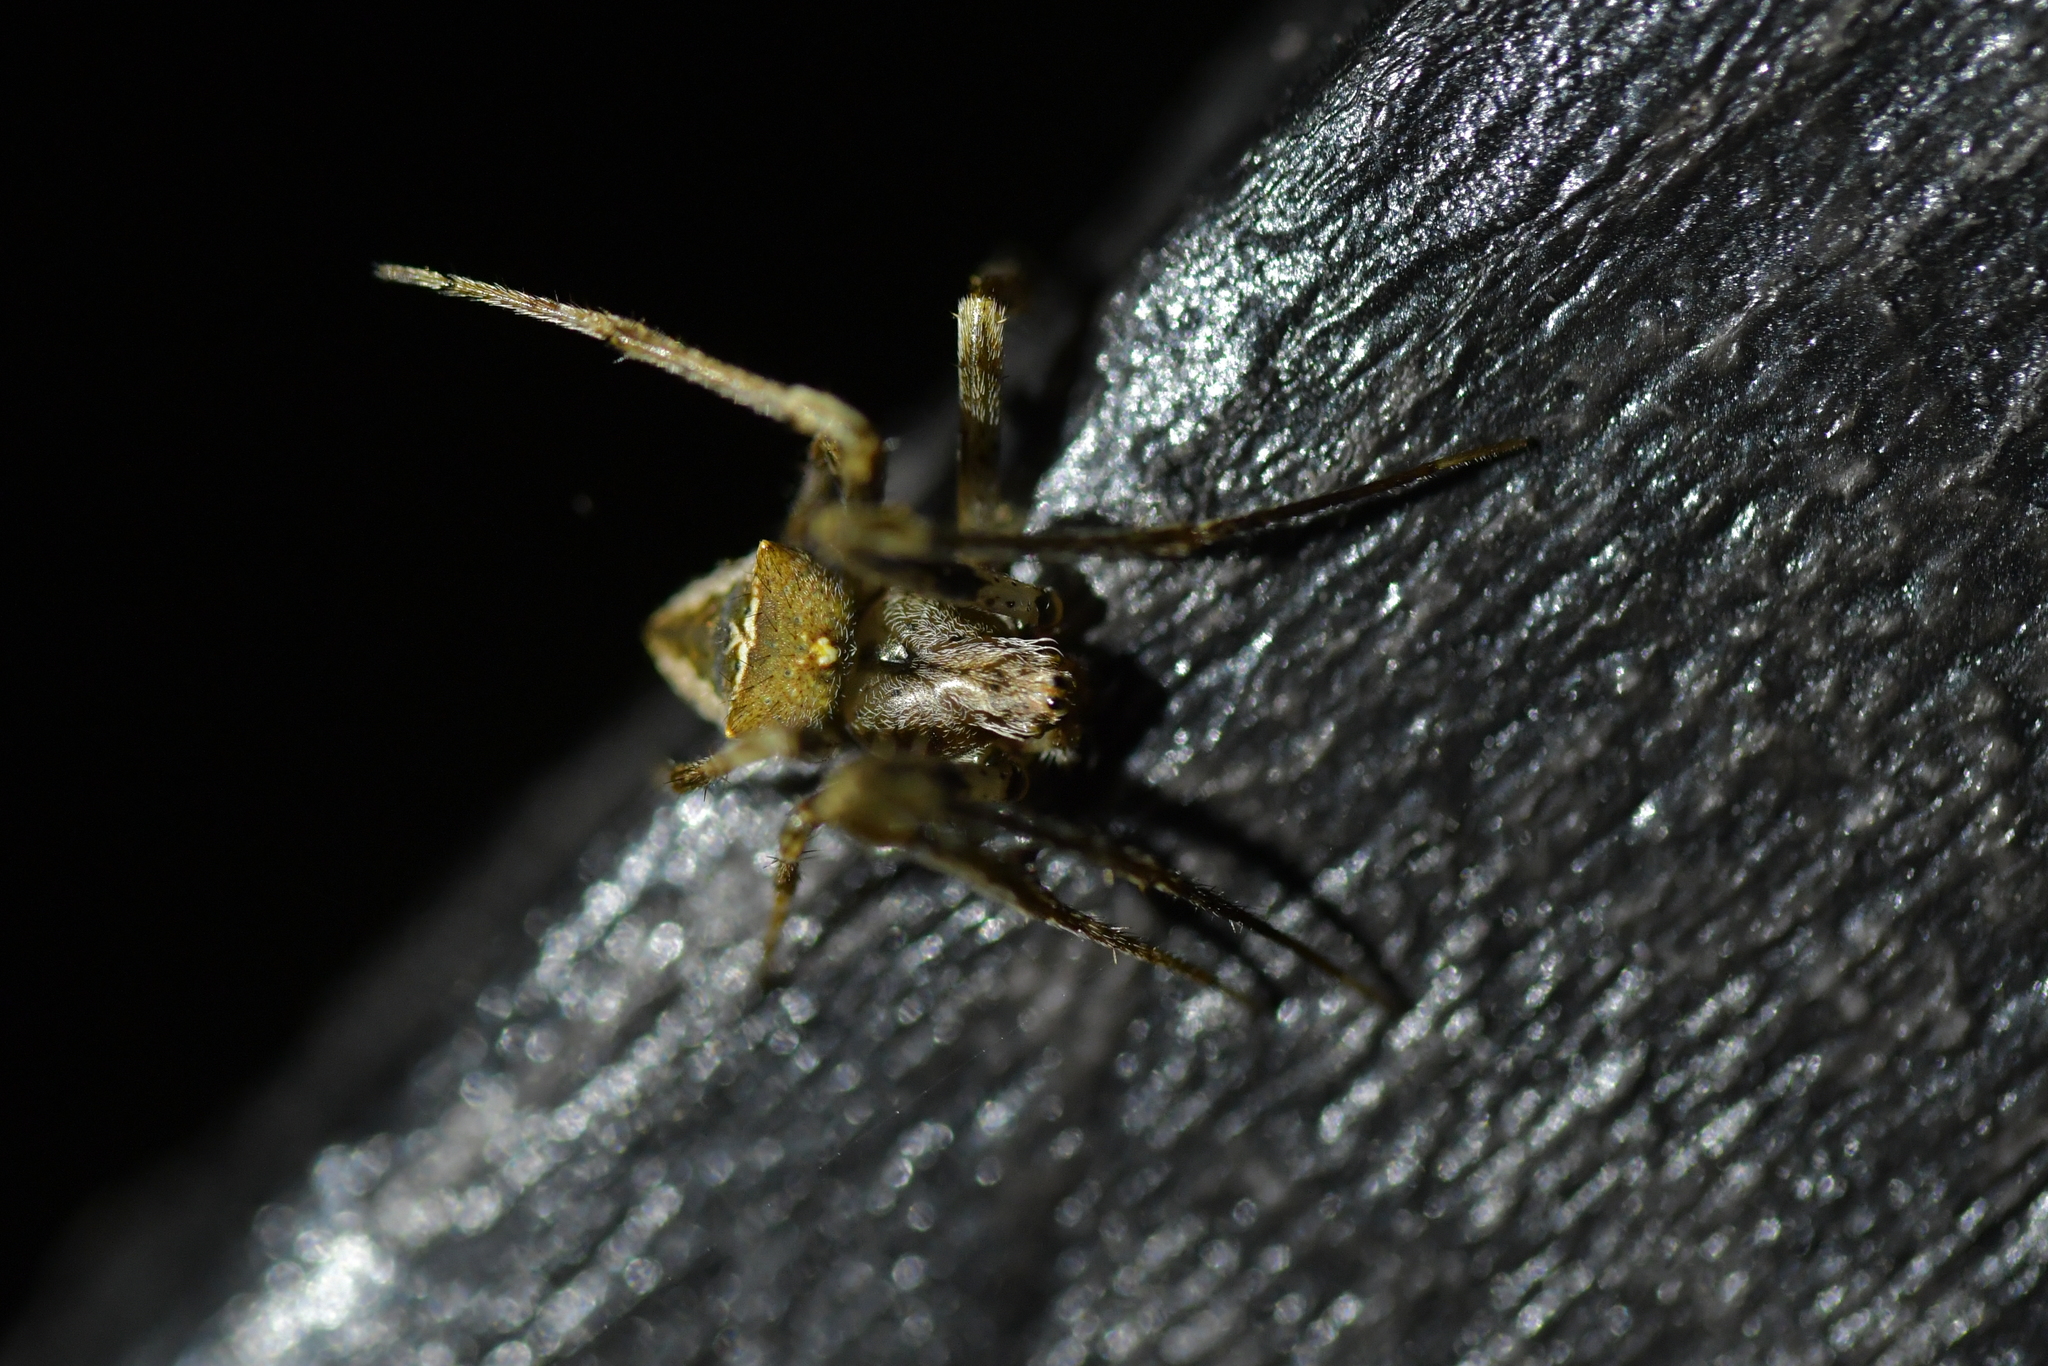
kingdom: Animalia
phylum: Arthropoda
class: Arachnida
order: Araneae
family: Araneidae
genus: Novakiella
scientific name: Novakiella trituberculosa
